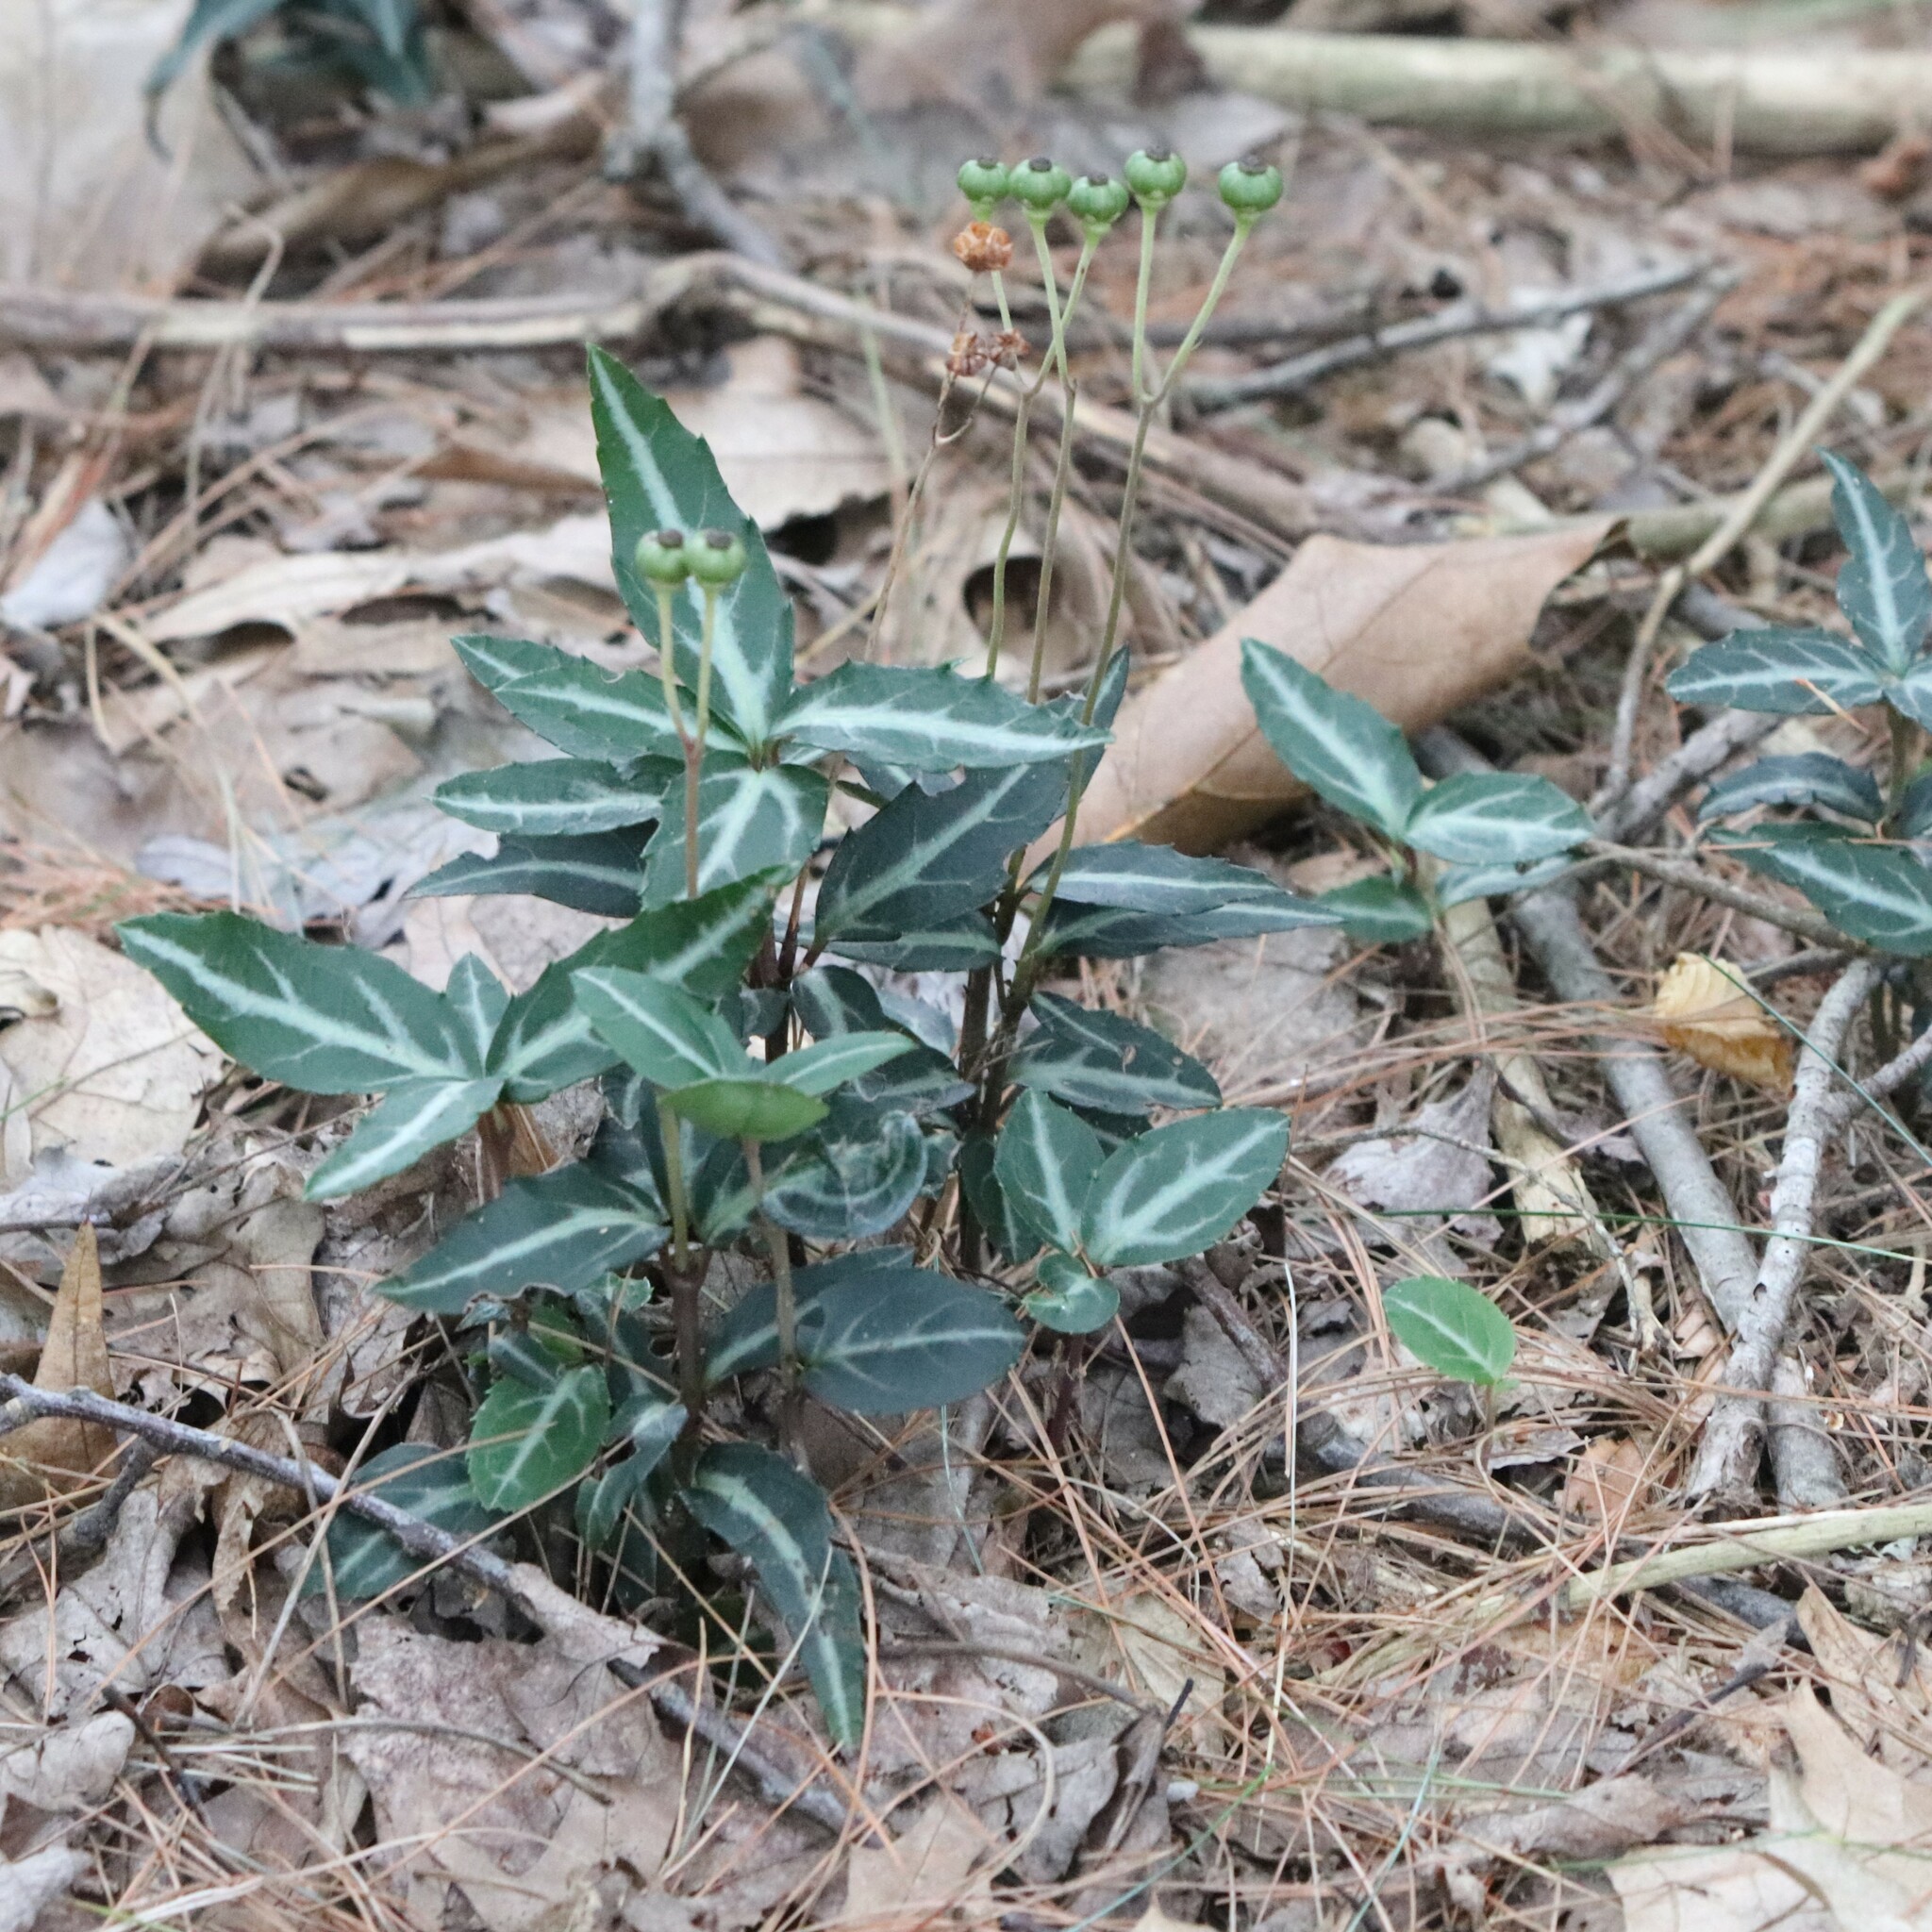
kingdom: Plantae
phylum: Tracheophyta
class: Magnoliopsida
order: Ericales
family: Ericaceae
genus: Chimaphila
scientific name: Chimaphila maculata
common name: Spotted pipsissewa
